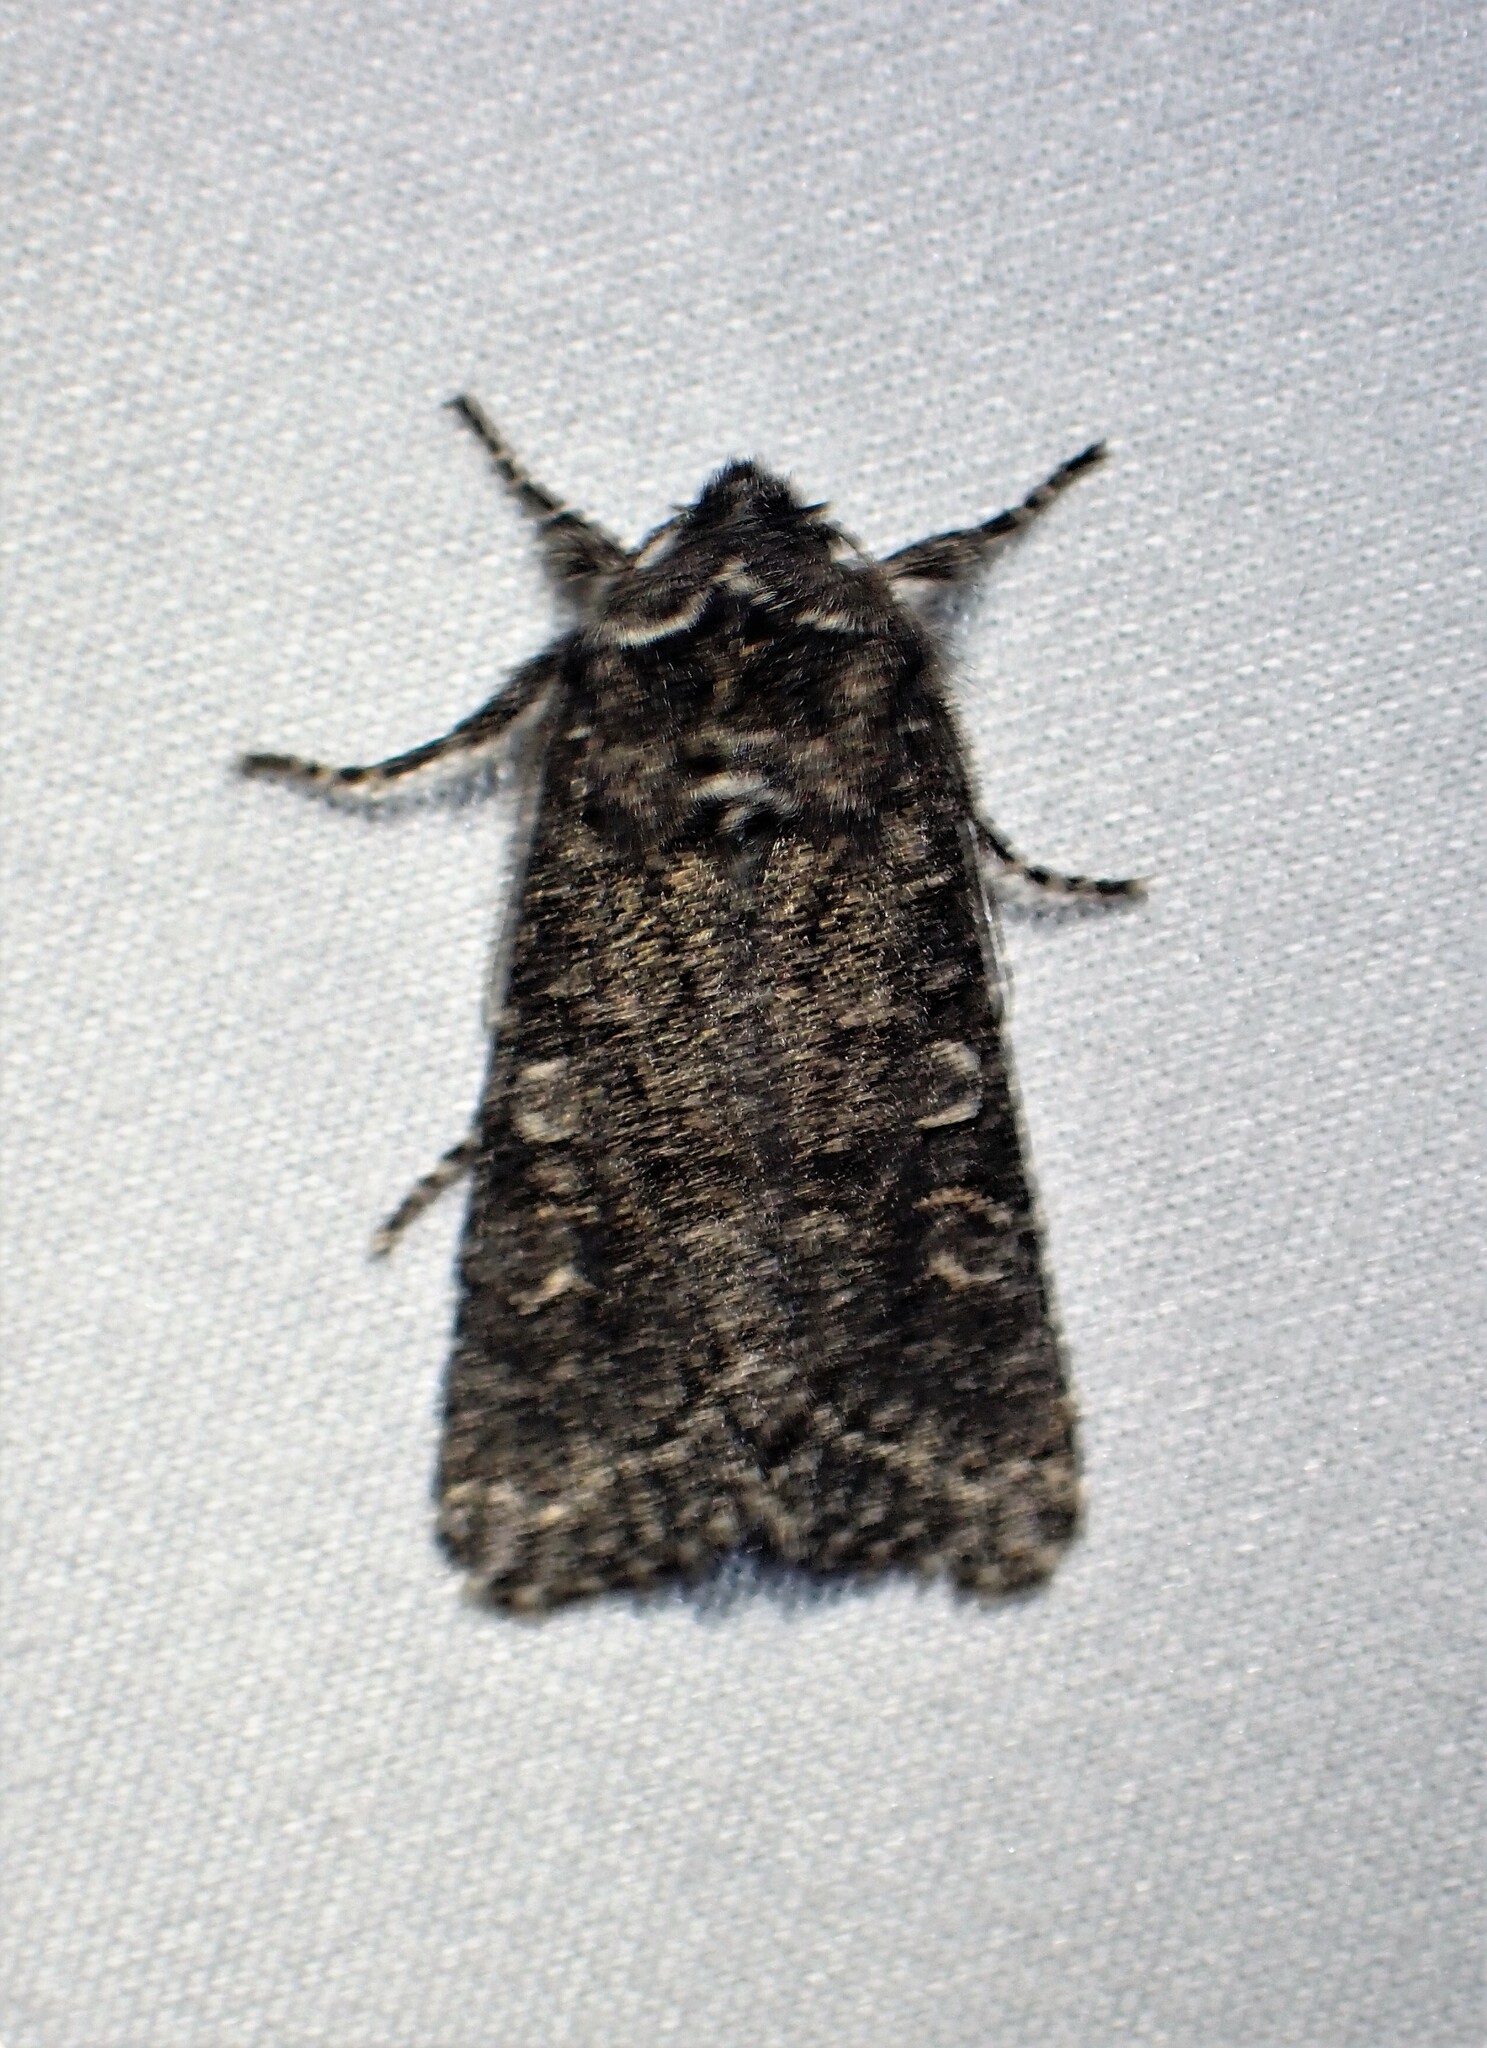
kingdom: Animalia
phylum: Arthropoda
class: Insecta
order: Lepidoptera
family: Noctuidae
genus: Egira
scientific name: Egira dolosa
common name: Lined black aspen cat.
